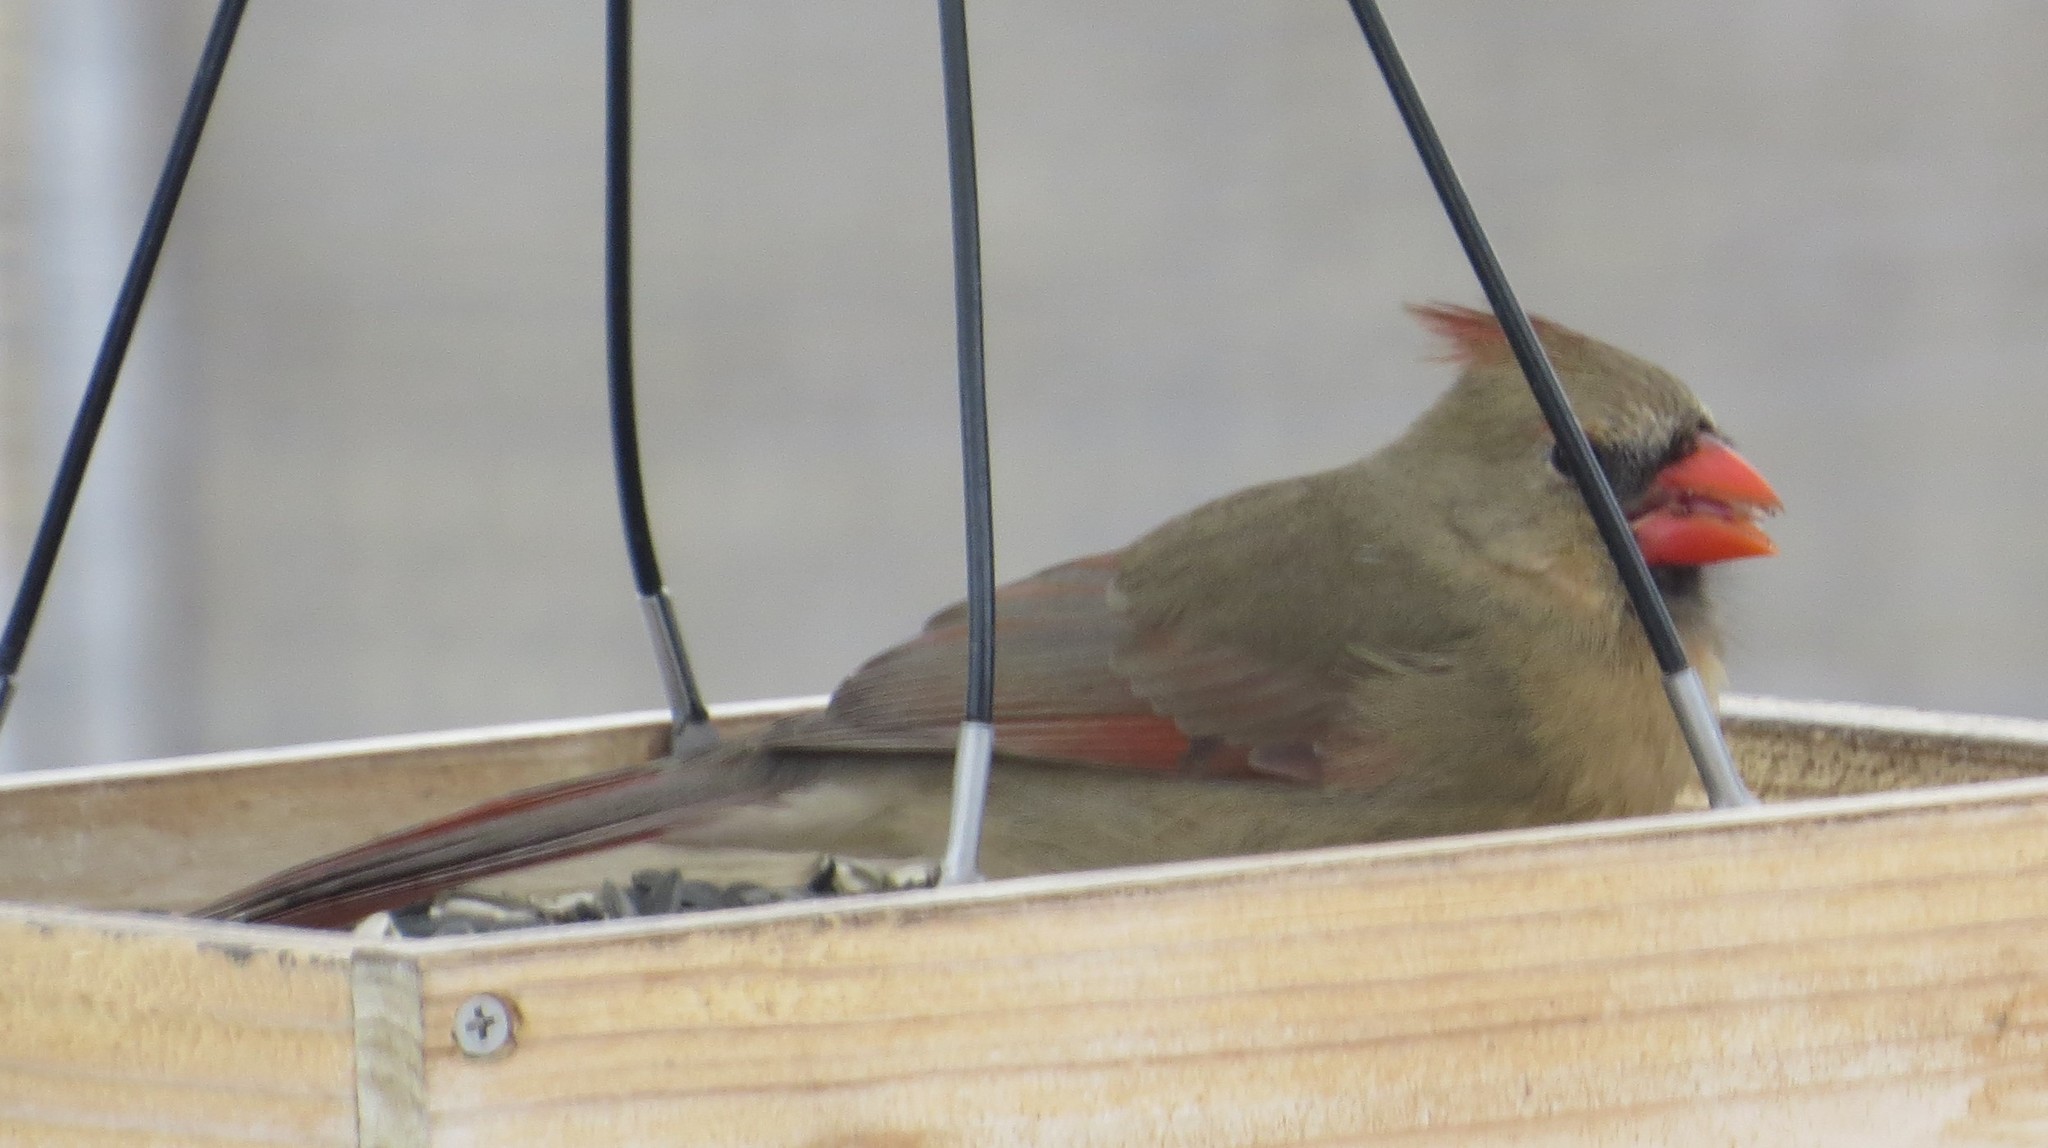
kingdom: Animalia
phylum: Chordata
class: Aves
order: Passeriformes
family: Cardinalidae
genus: Cardinalis
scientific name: Cardinalis cardinalis
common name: Northern cardinal
